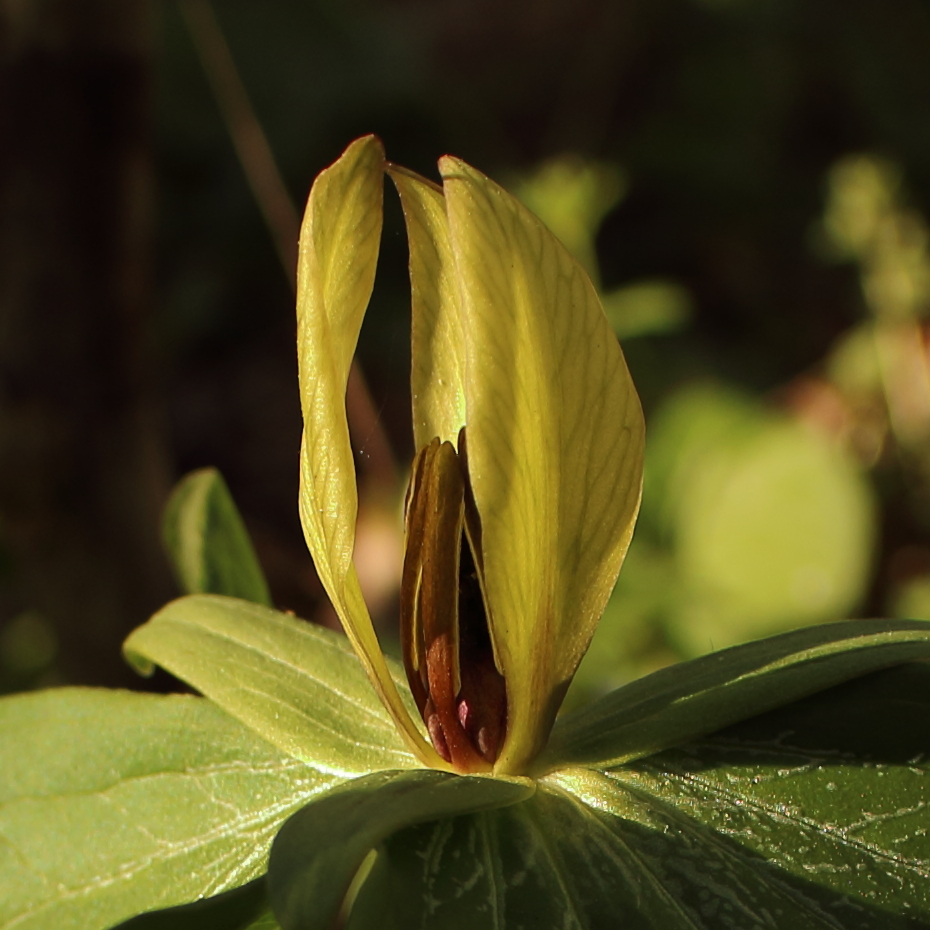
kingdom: Plantae
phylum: Tracheophyta
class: Liliopsida
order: Liliales
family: Melanthiaceae
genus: Trillium
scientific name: Trillium sessile
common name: Sessile trillium
